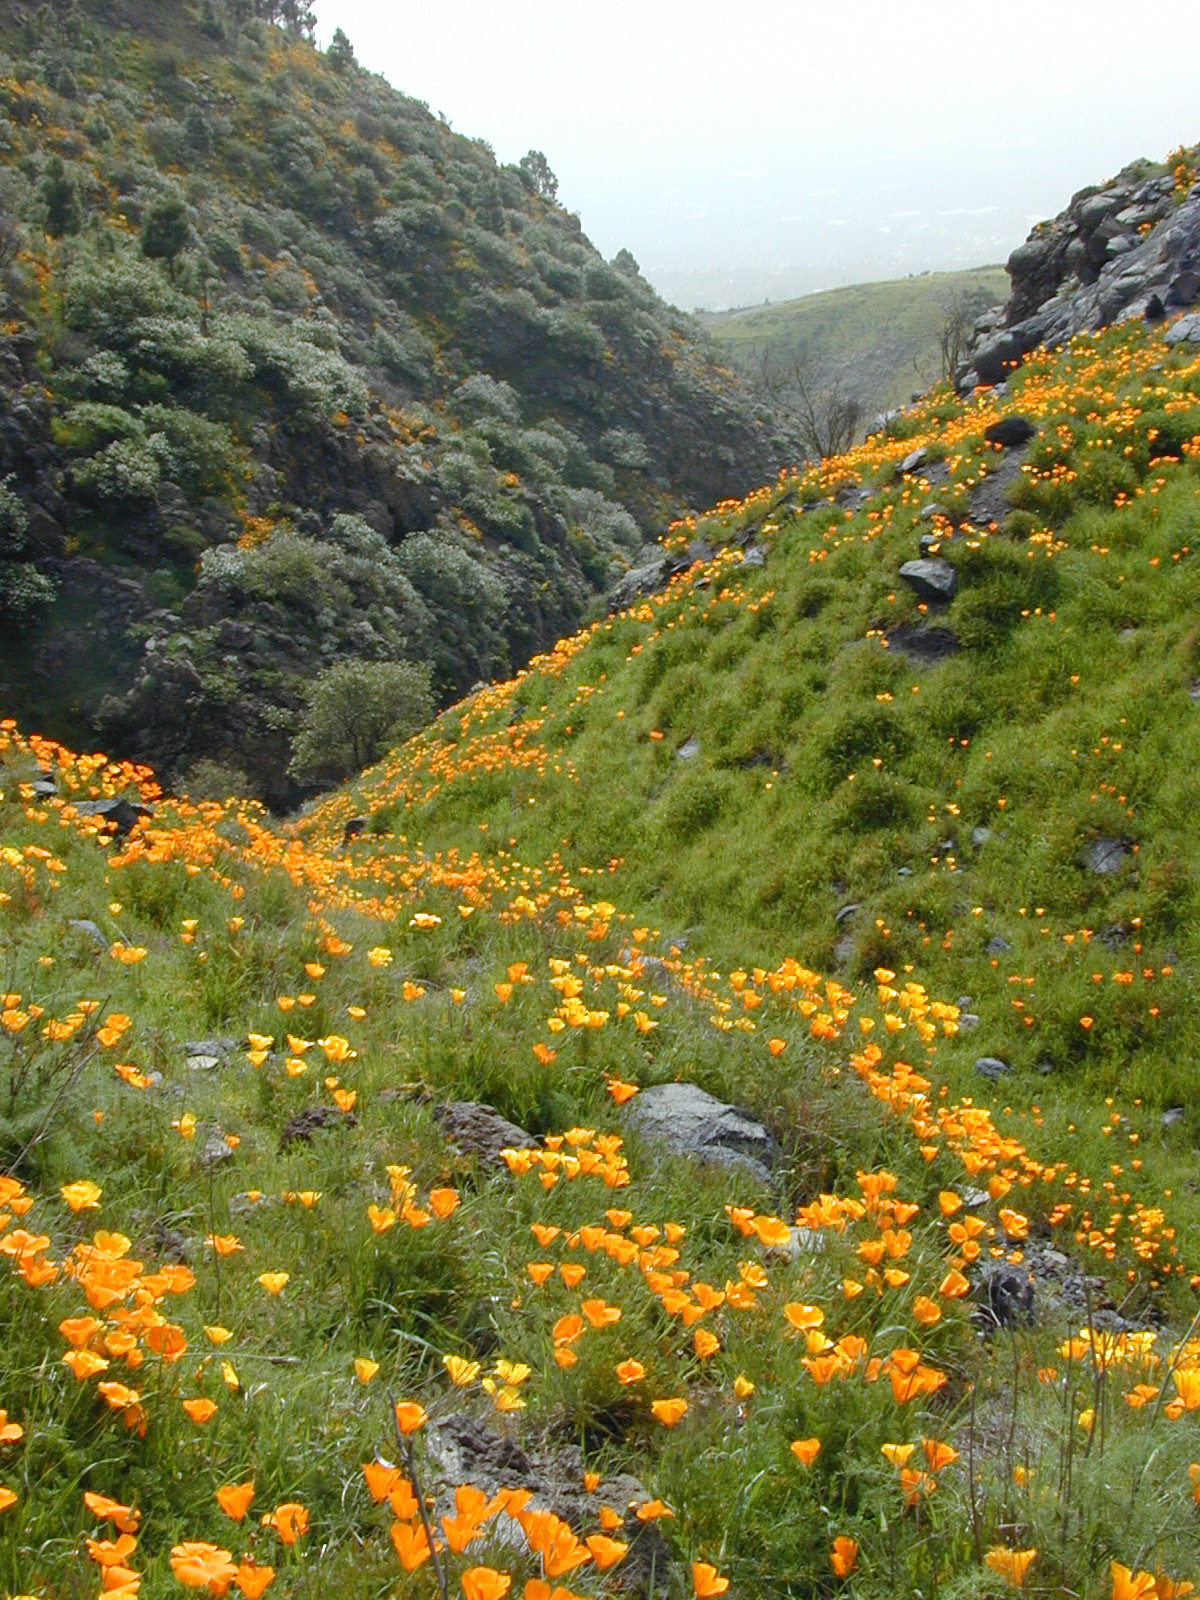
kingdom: Plantae
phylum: Tracheophyta
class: Magnoliopsida
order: Ranunculales
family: Papaveraceae
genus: Eschscholzia
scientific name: Eschscholzia californica
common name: California poppy
